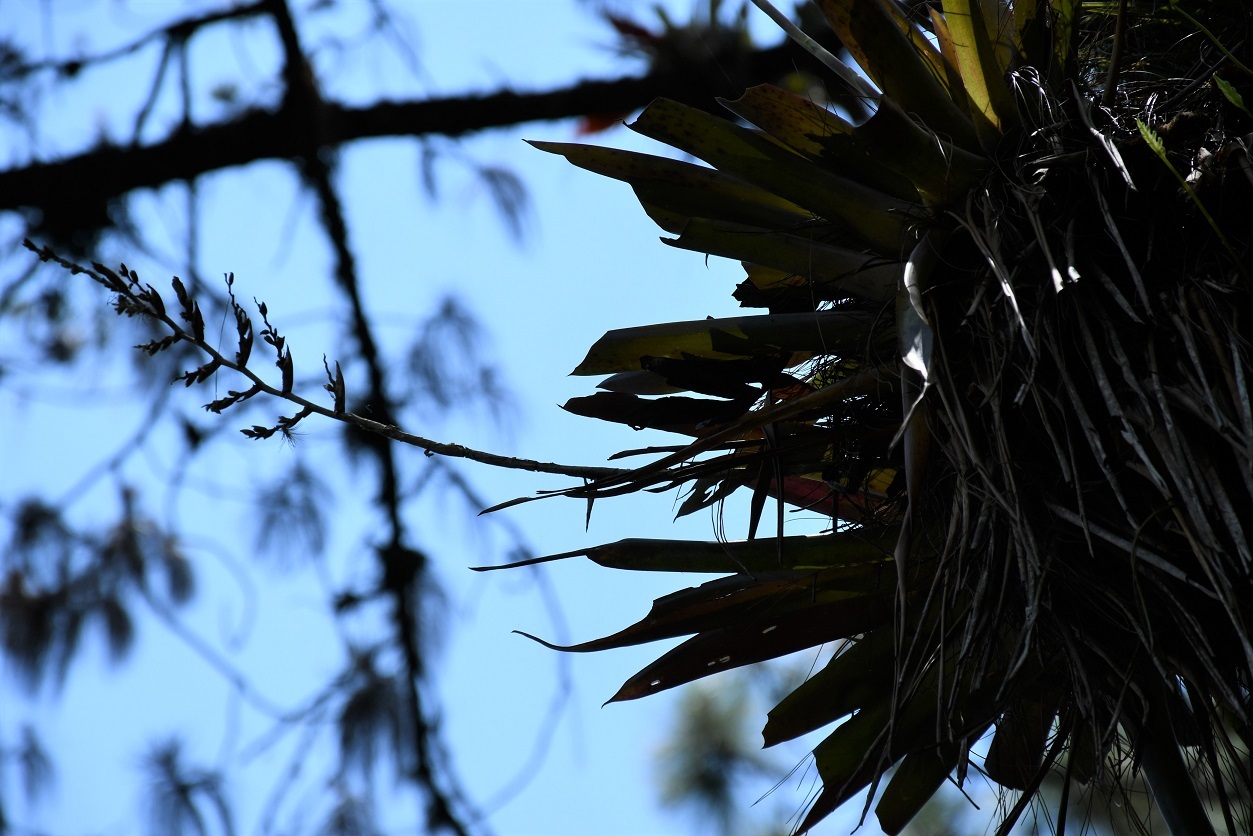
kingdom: Plantae
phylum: Tracheophyta
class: Liliopsida
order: Poales
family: Bromeliaceae
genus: Racinaea
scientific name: Racinaea rothschuhiana
